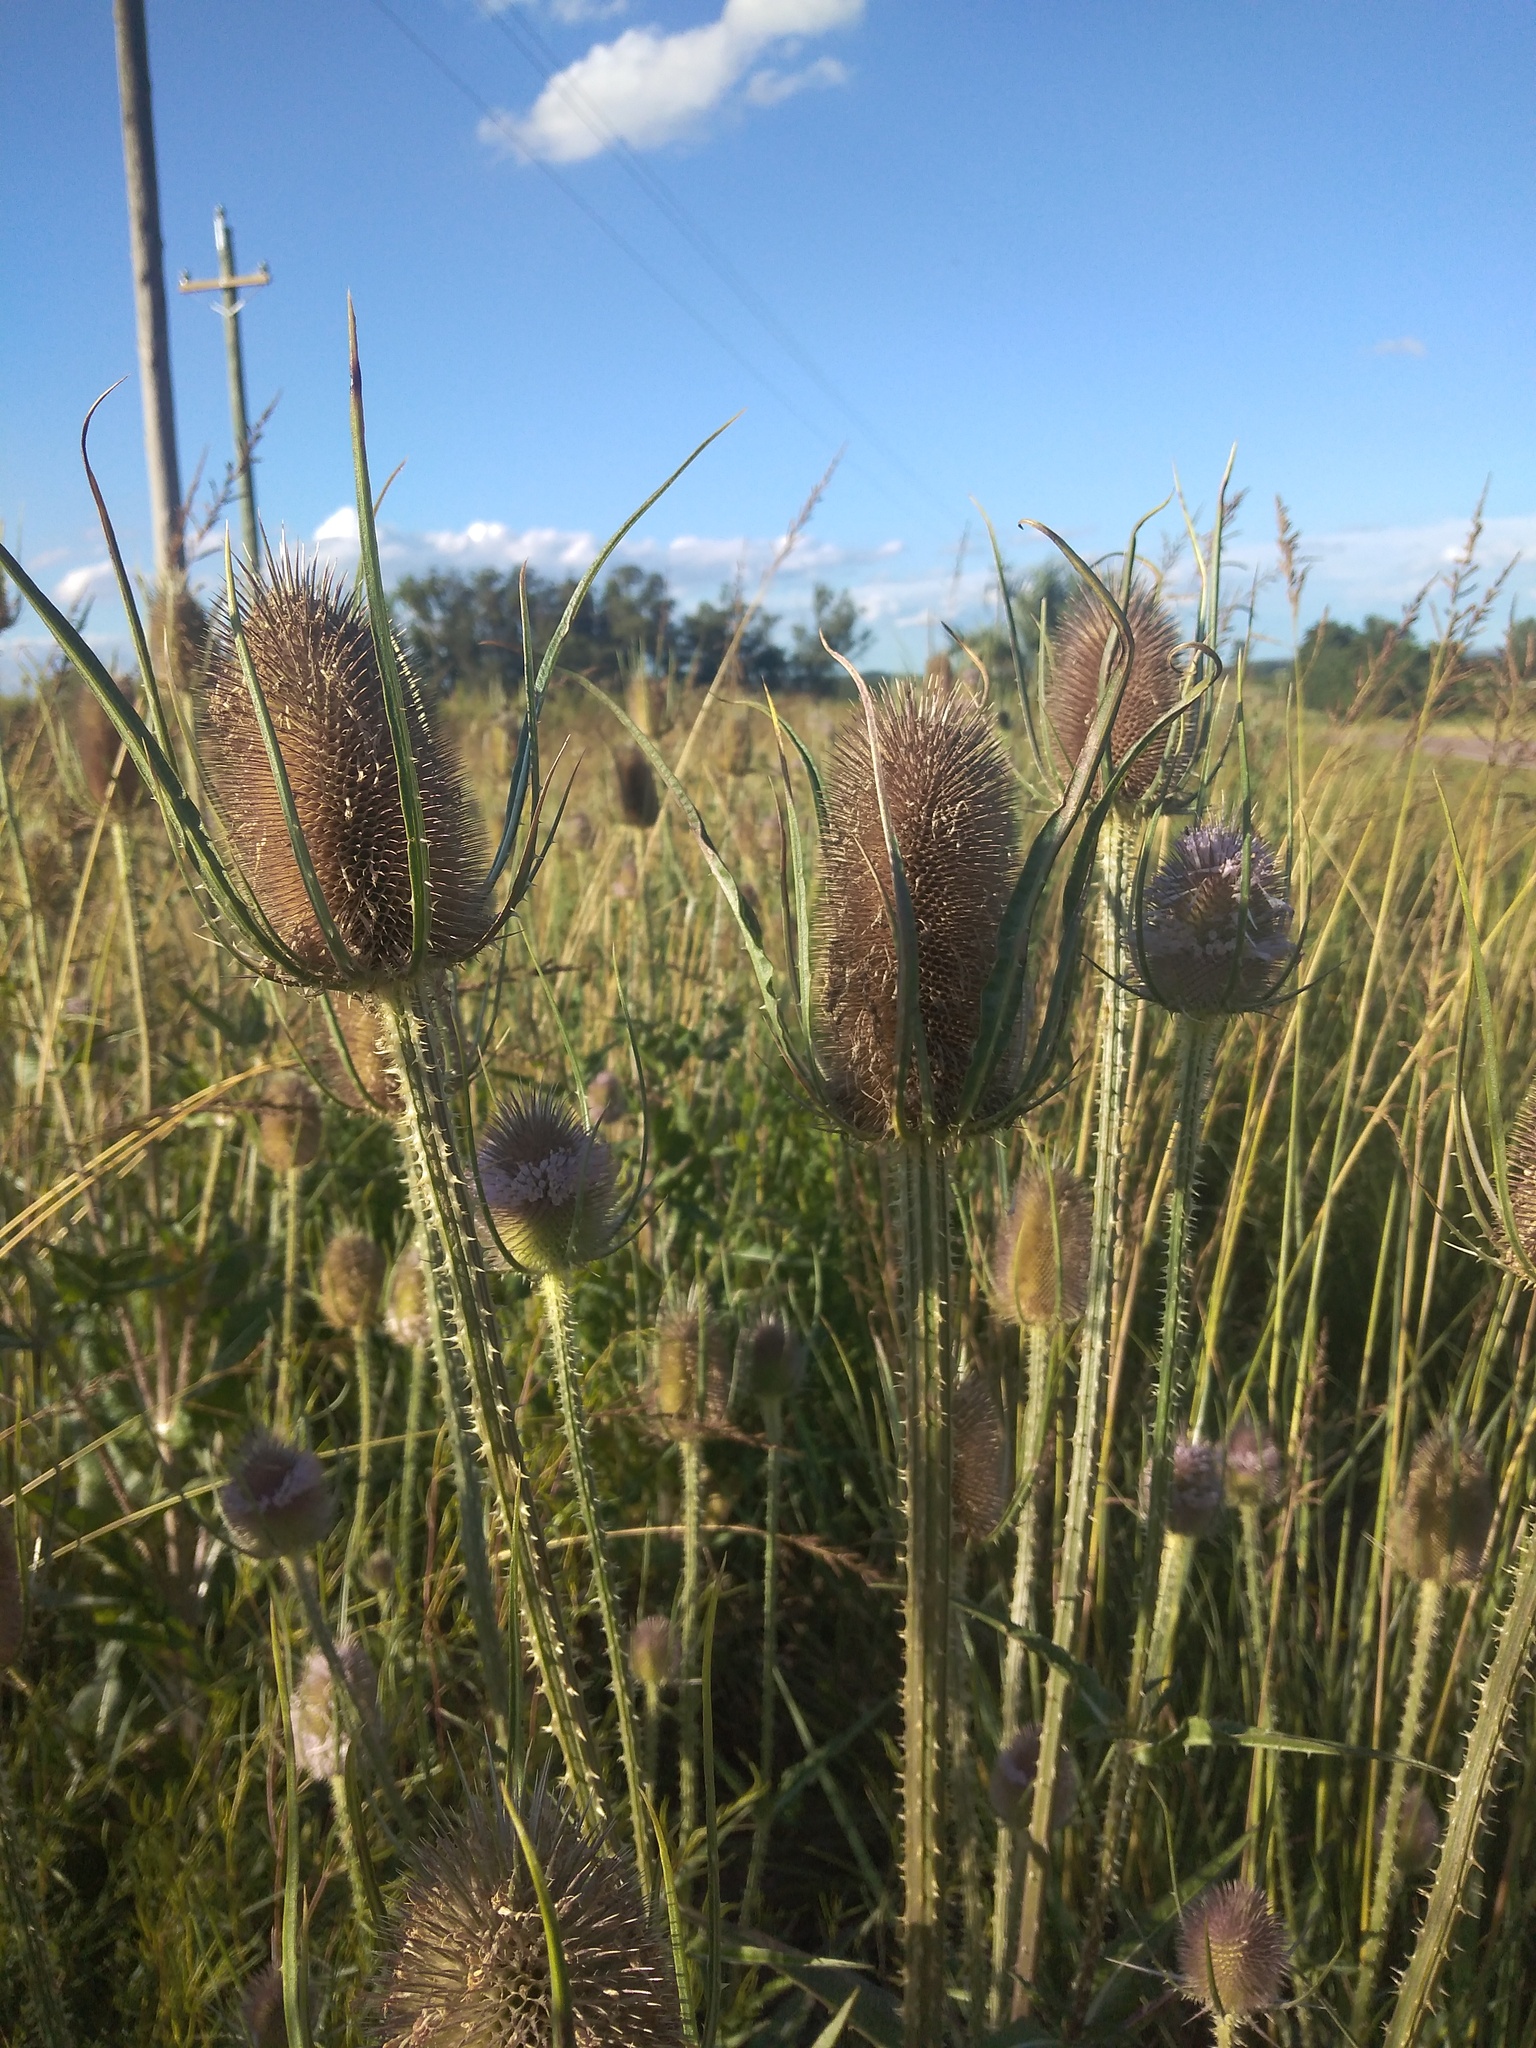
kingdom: Plantae
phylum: Tracheophyta
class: Magnoliopsida
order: Dipsacales
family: Caprifoliaceae
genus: Dipsacus
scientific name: Dipsacus fullonum
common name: Teasel
